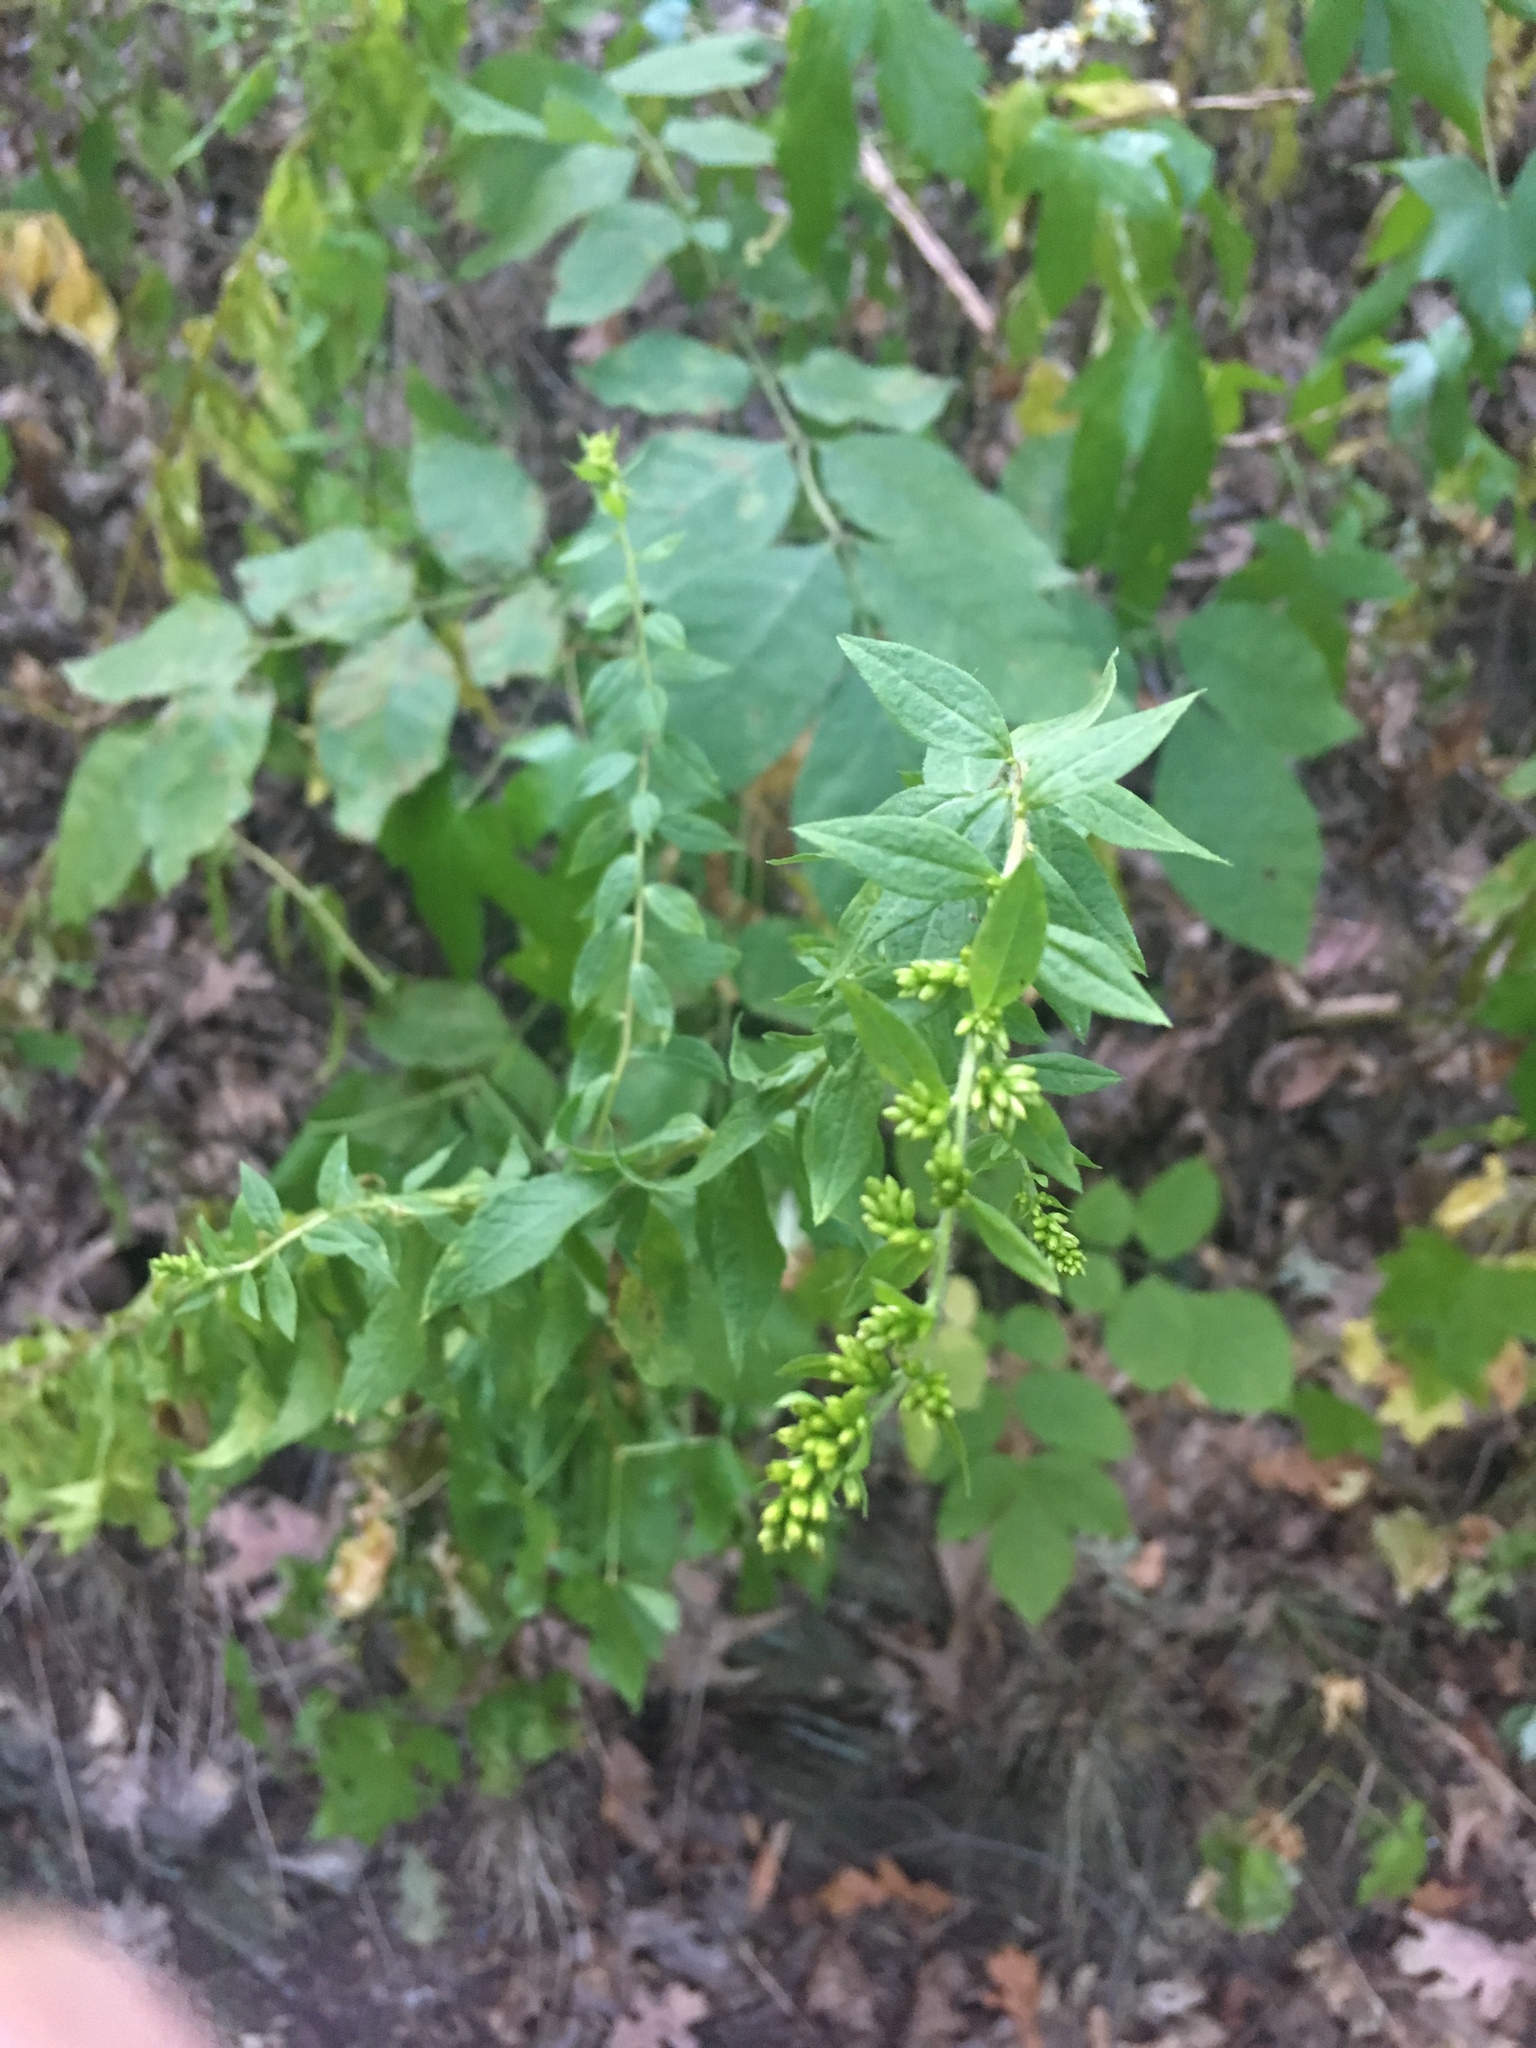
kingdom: Plantae
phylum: Tracheophyta
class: Magnoliopsida
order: Asterales
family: Asteraceae
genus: Solidago
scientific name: Solidago rugosa
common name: Rough-stemmed goldenrod
